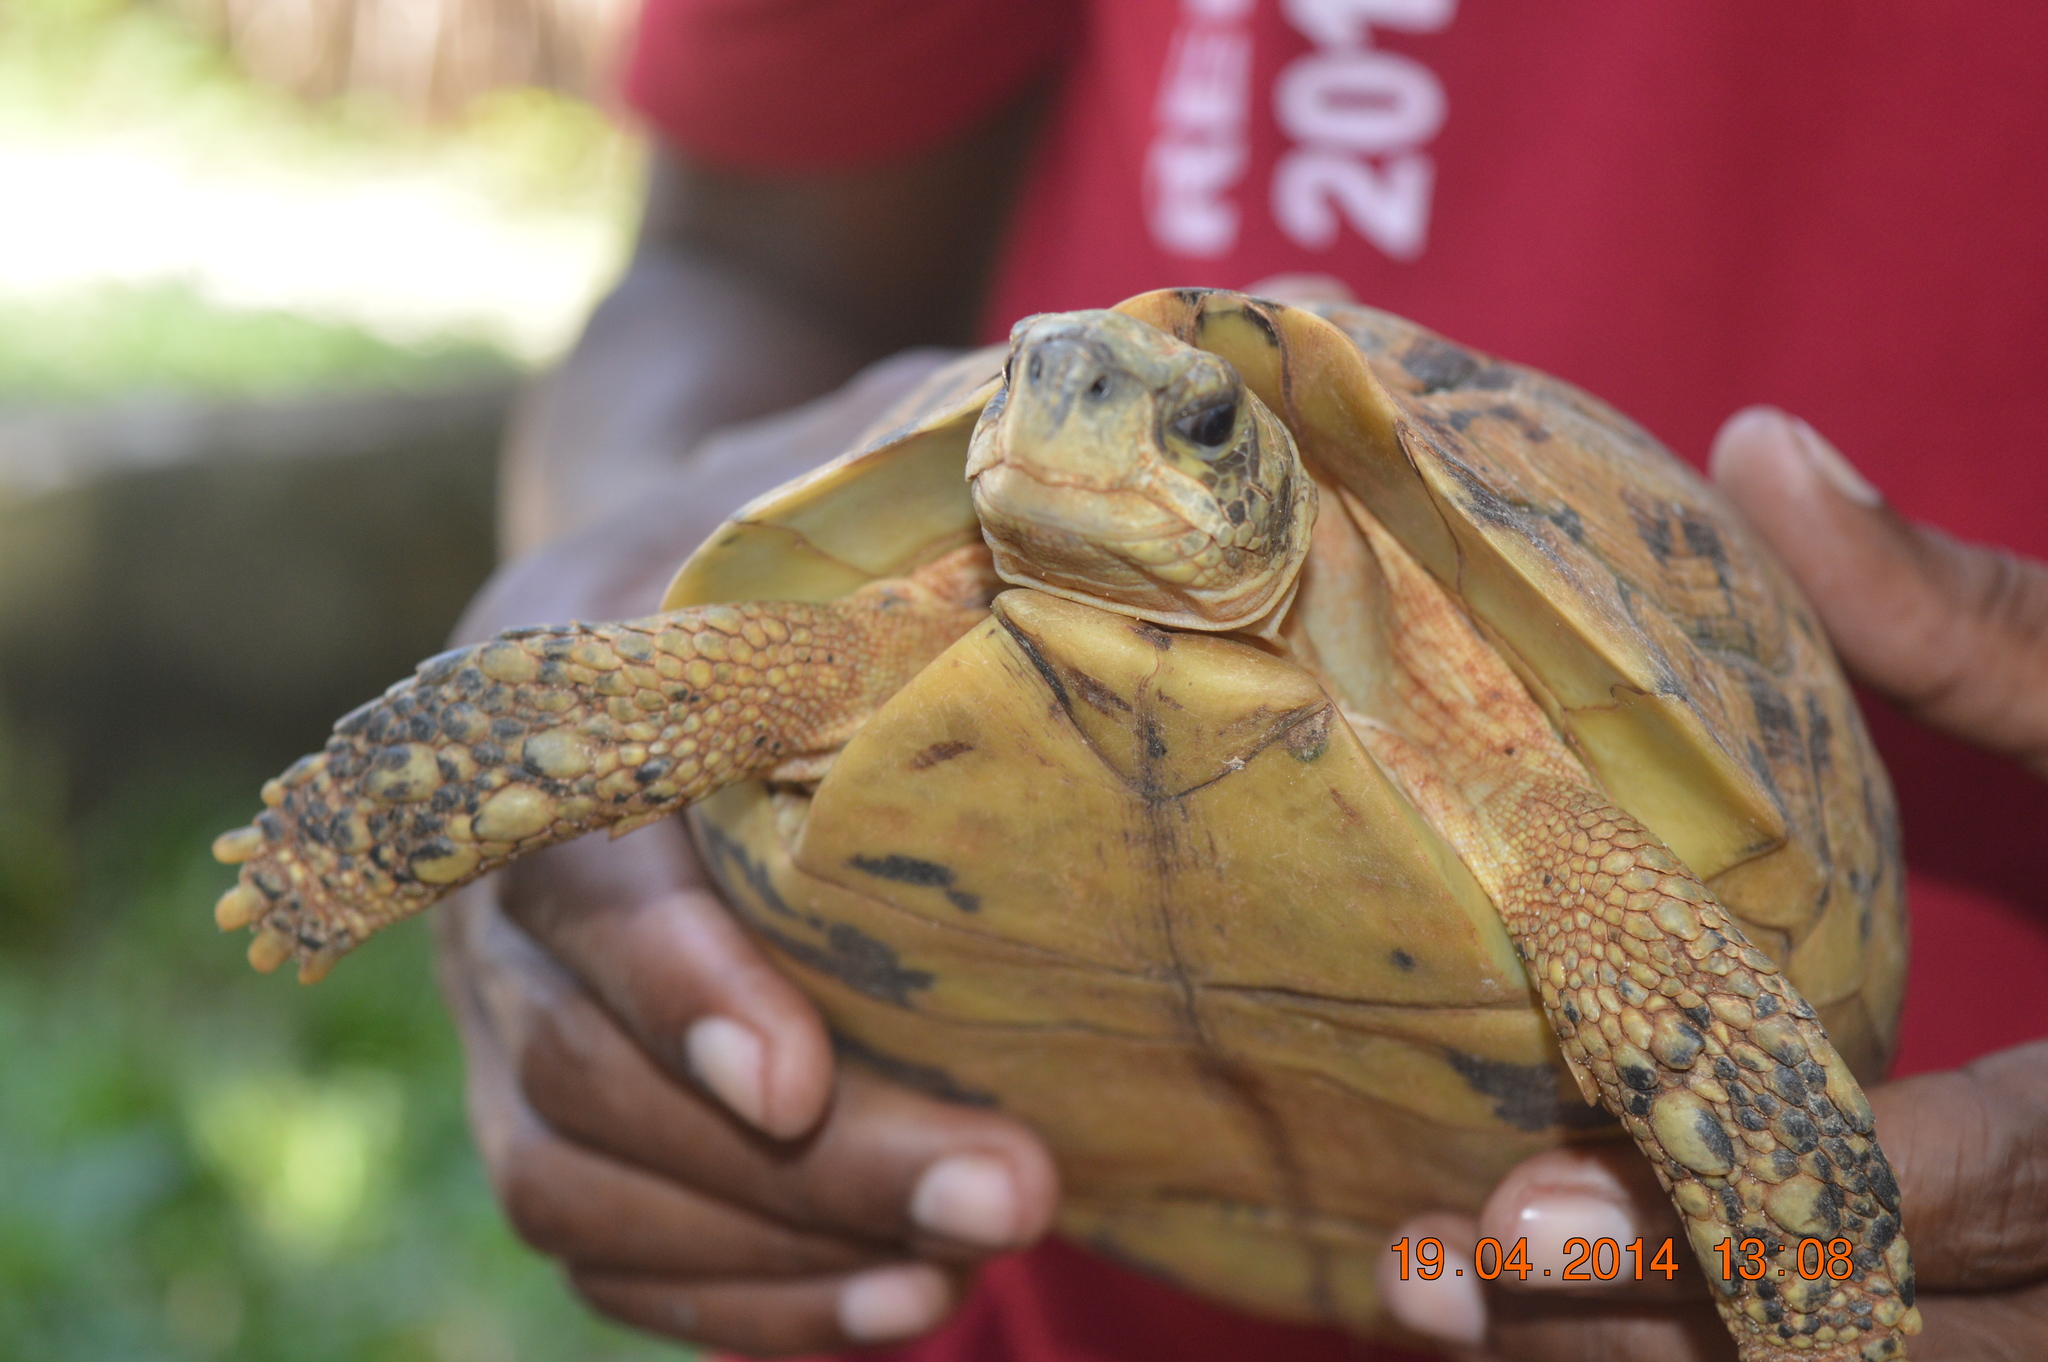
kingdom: Animalia
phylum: Chordata
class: Testudines
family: Testudinidae
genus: Kinixys
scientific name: Kinixys zombensis
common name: Southeastern hinge-back tortoise
